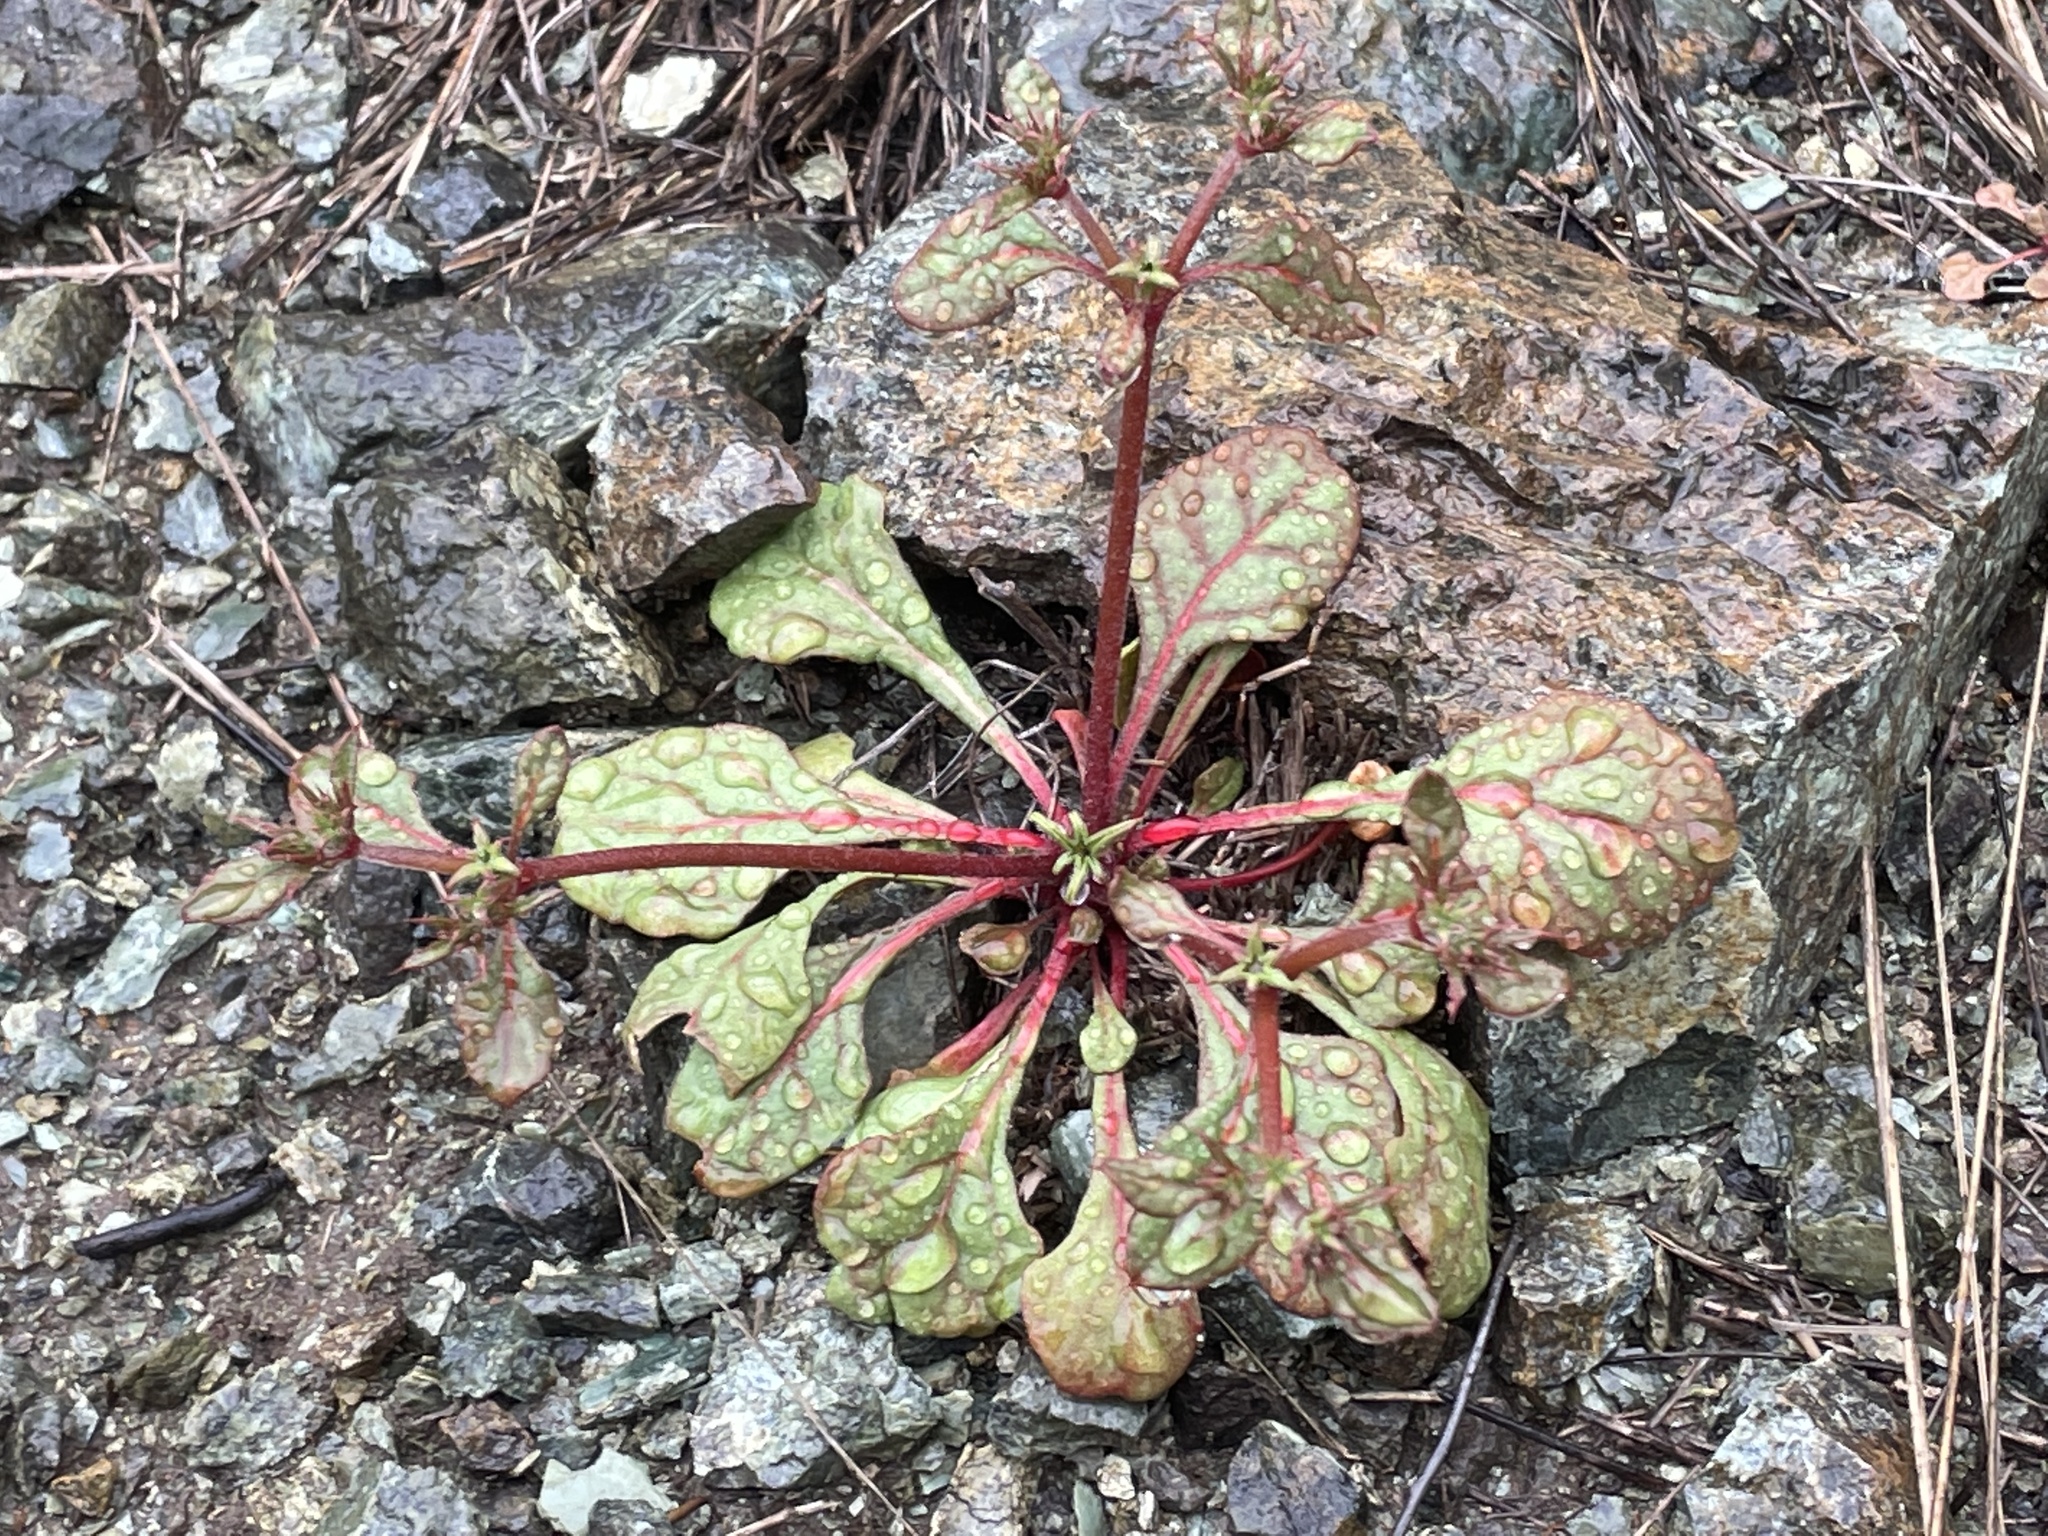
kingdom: Plantae
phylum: Tracheophyta
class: Magnoliopsida
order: Caryophyllales
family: Polygonaceae
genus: Chorizanthe
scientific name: Chorizanthe breweri
